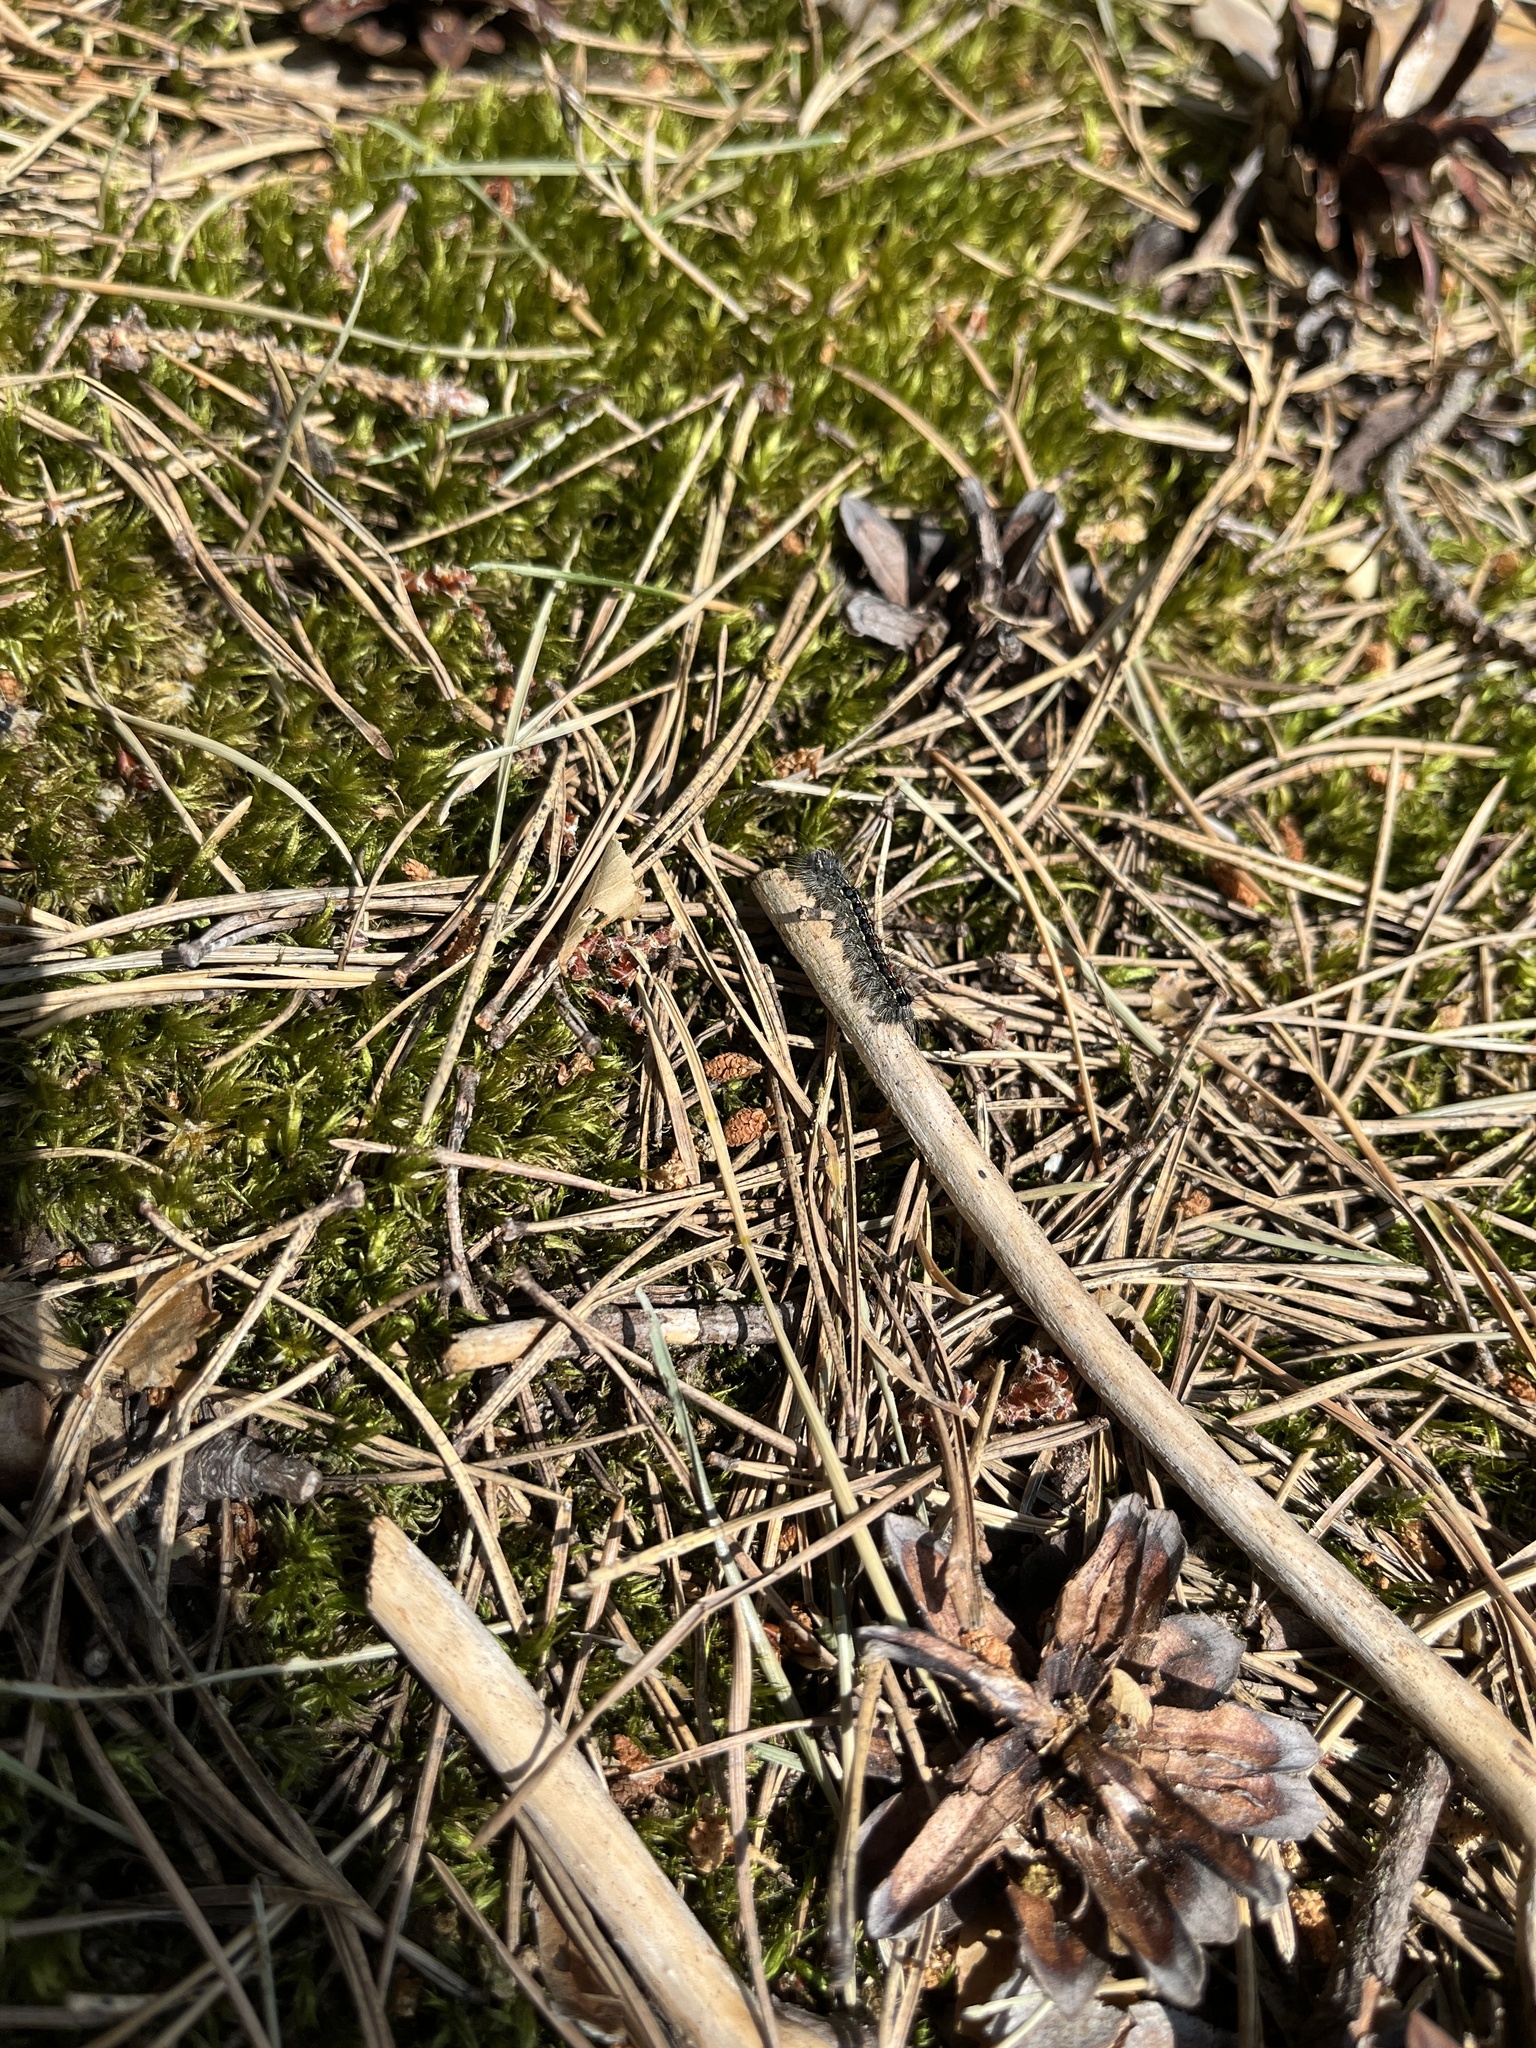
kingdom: Animalia
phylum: Arthropoda
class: Insecta
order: Lepidoptera
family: Erebidae
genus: Lymantria
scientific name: Lymantria dispar
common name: Gypsy moth
